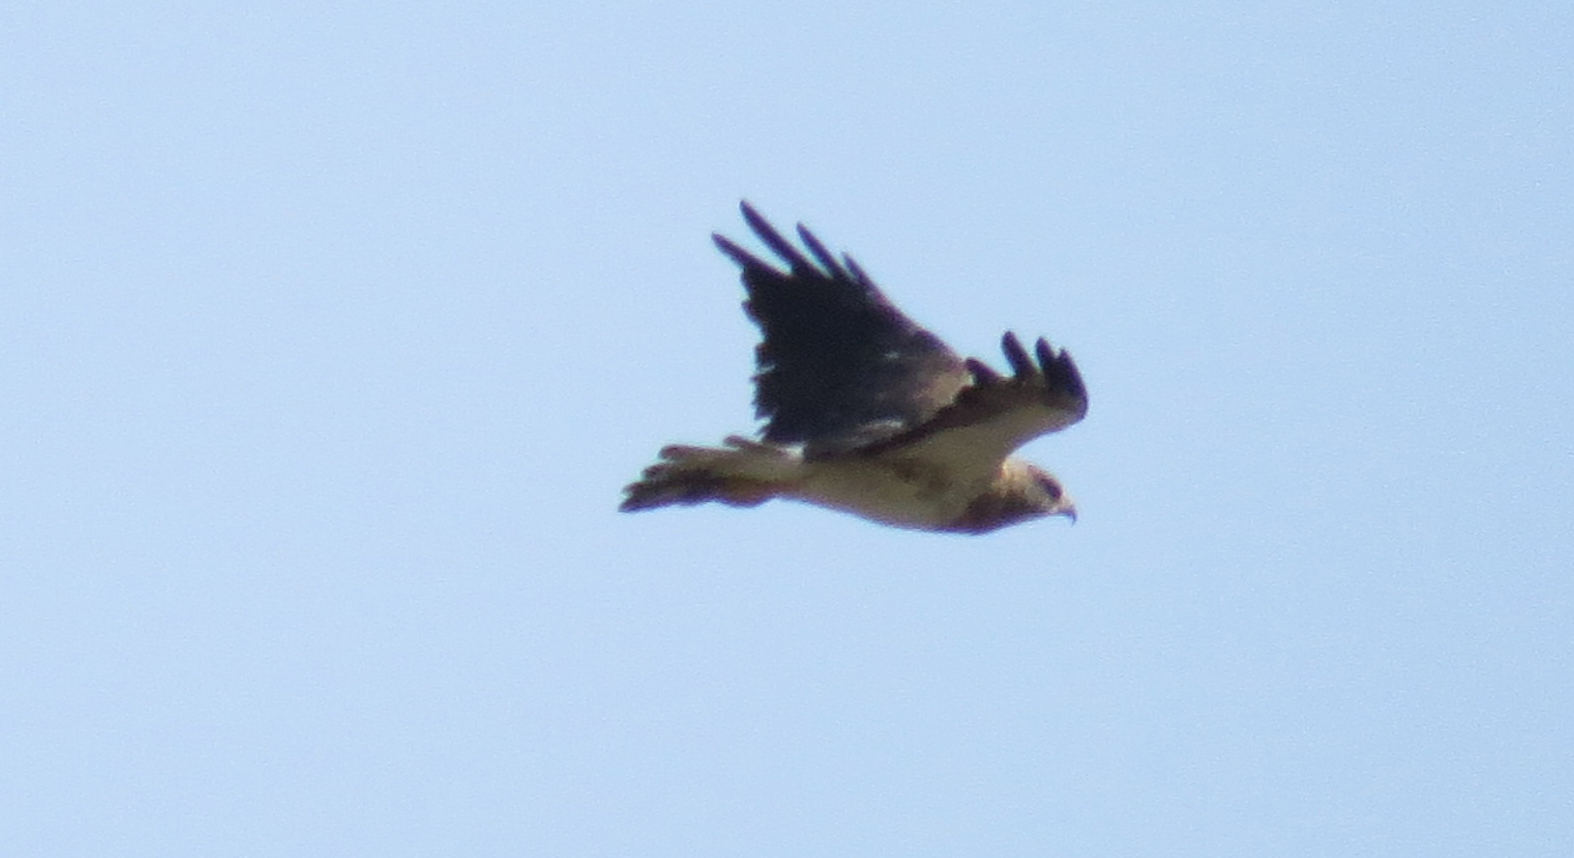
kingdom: Animalia
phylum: Chordata
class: Aves
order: Accipitriformes
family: Accipitridae
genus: Buteo
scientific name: Buteo swainsoni
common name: Swainson's hawk
